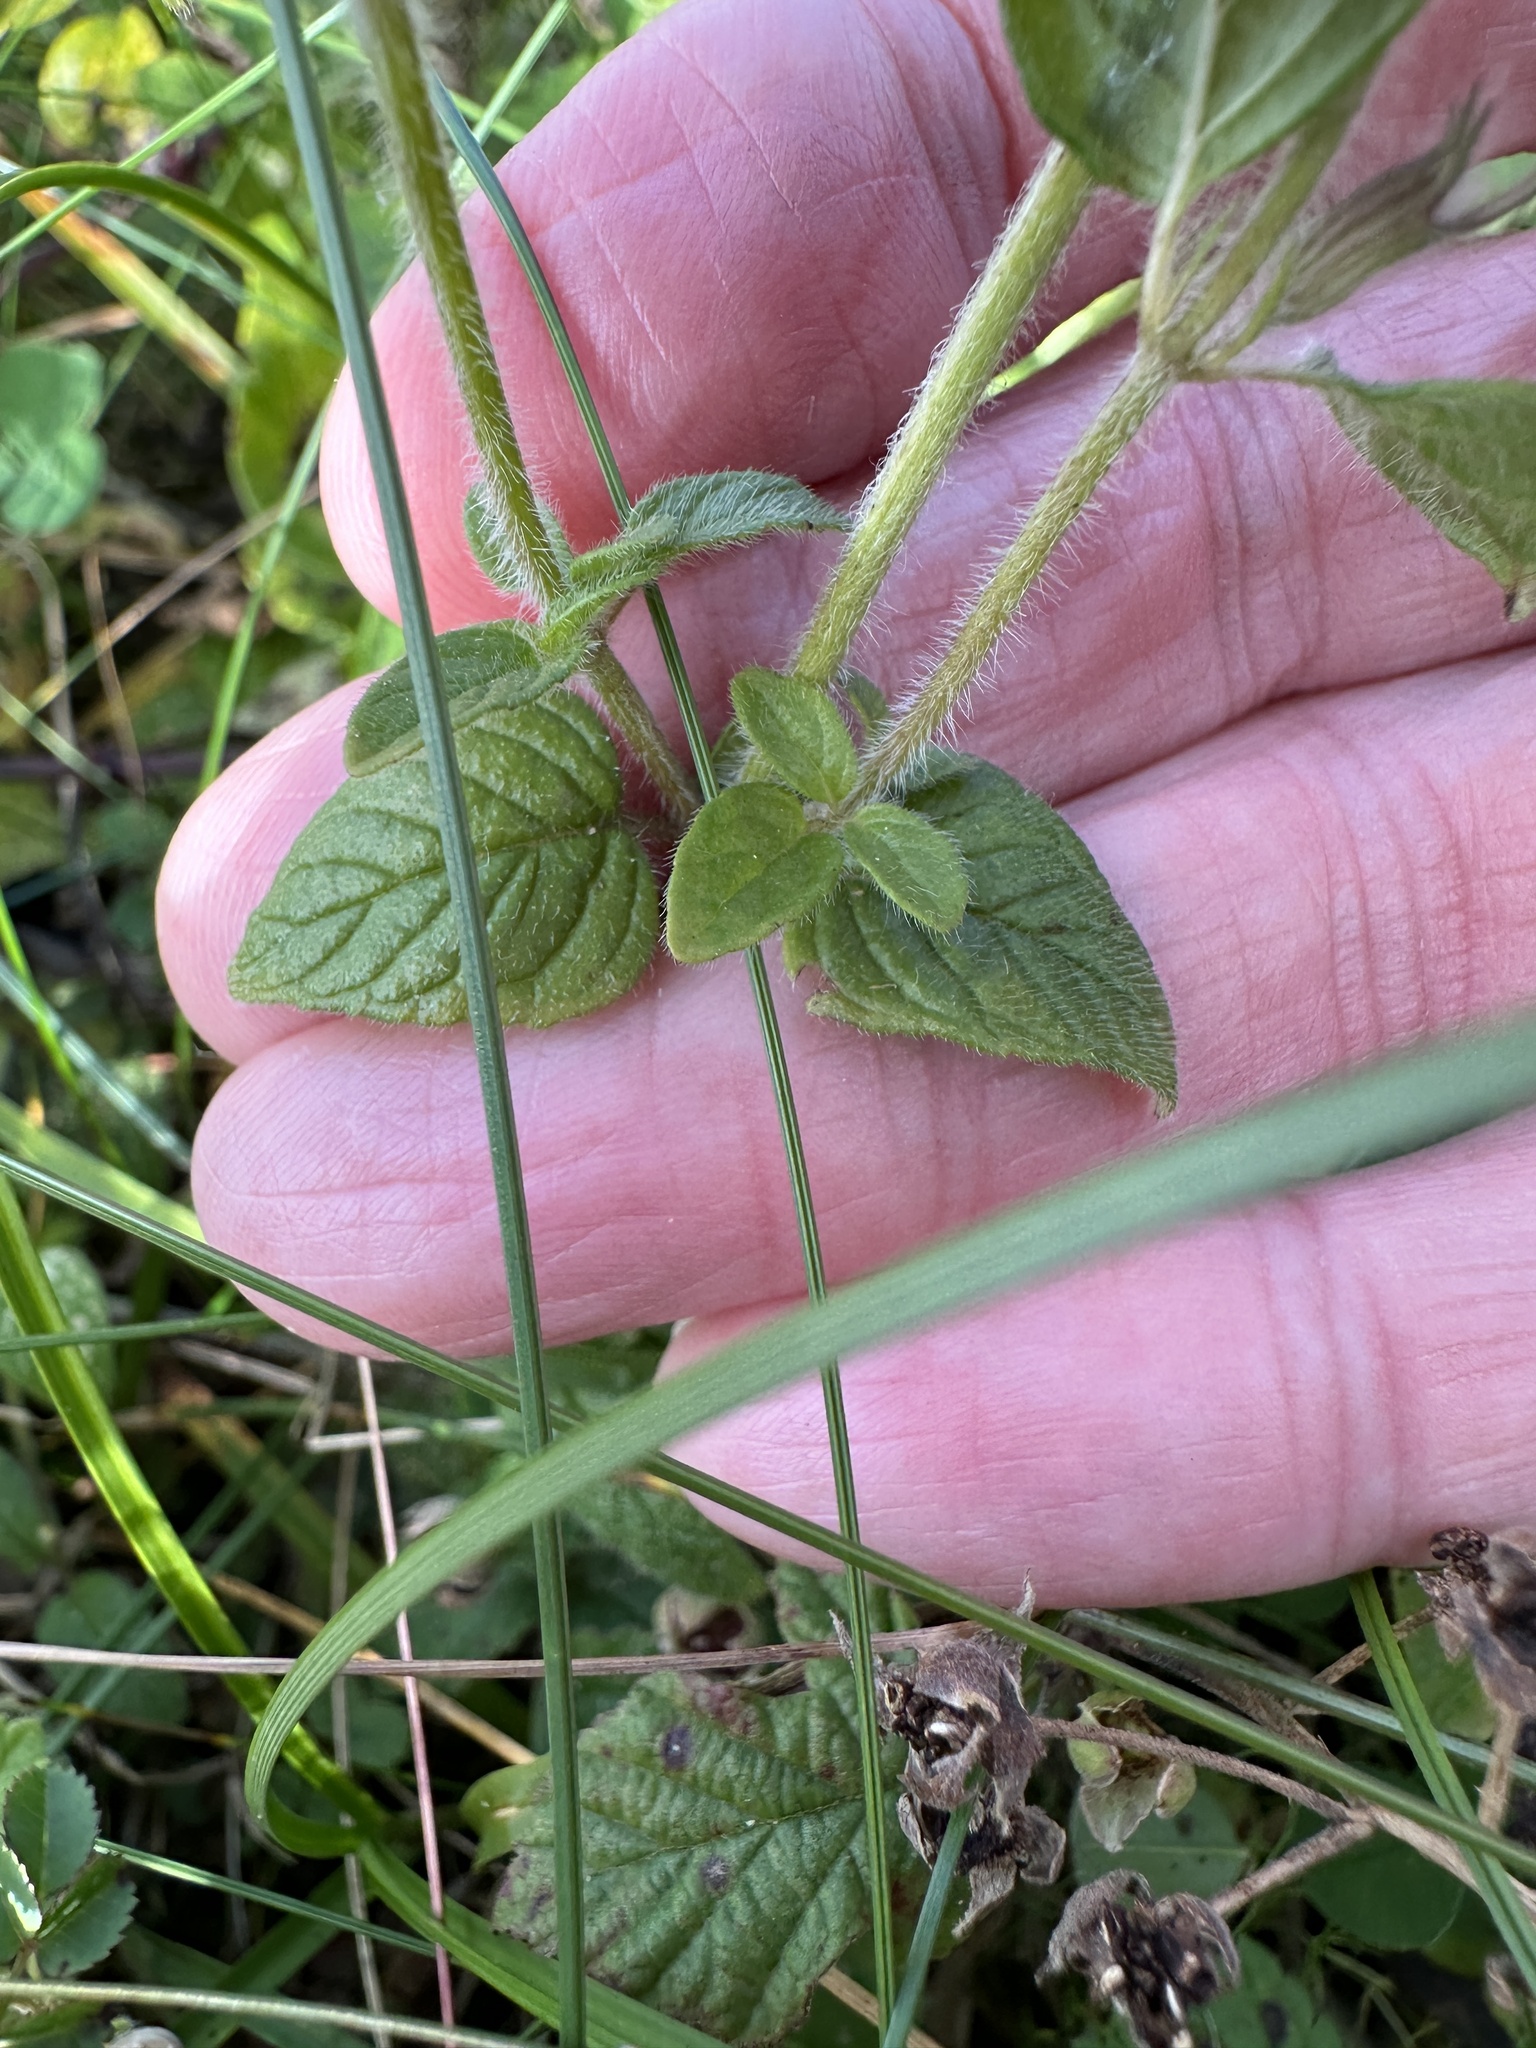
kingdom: Plantae
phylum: Tracheophyta
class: Magnoliopsida
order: Lamiales
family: Lamiaceae
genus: Clinopodium
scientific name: Clinopodium vulgare
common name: Wild basil
